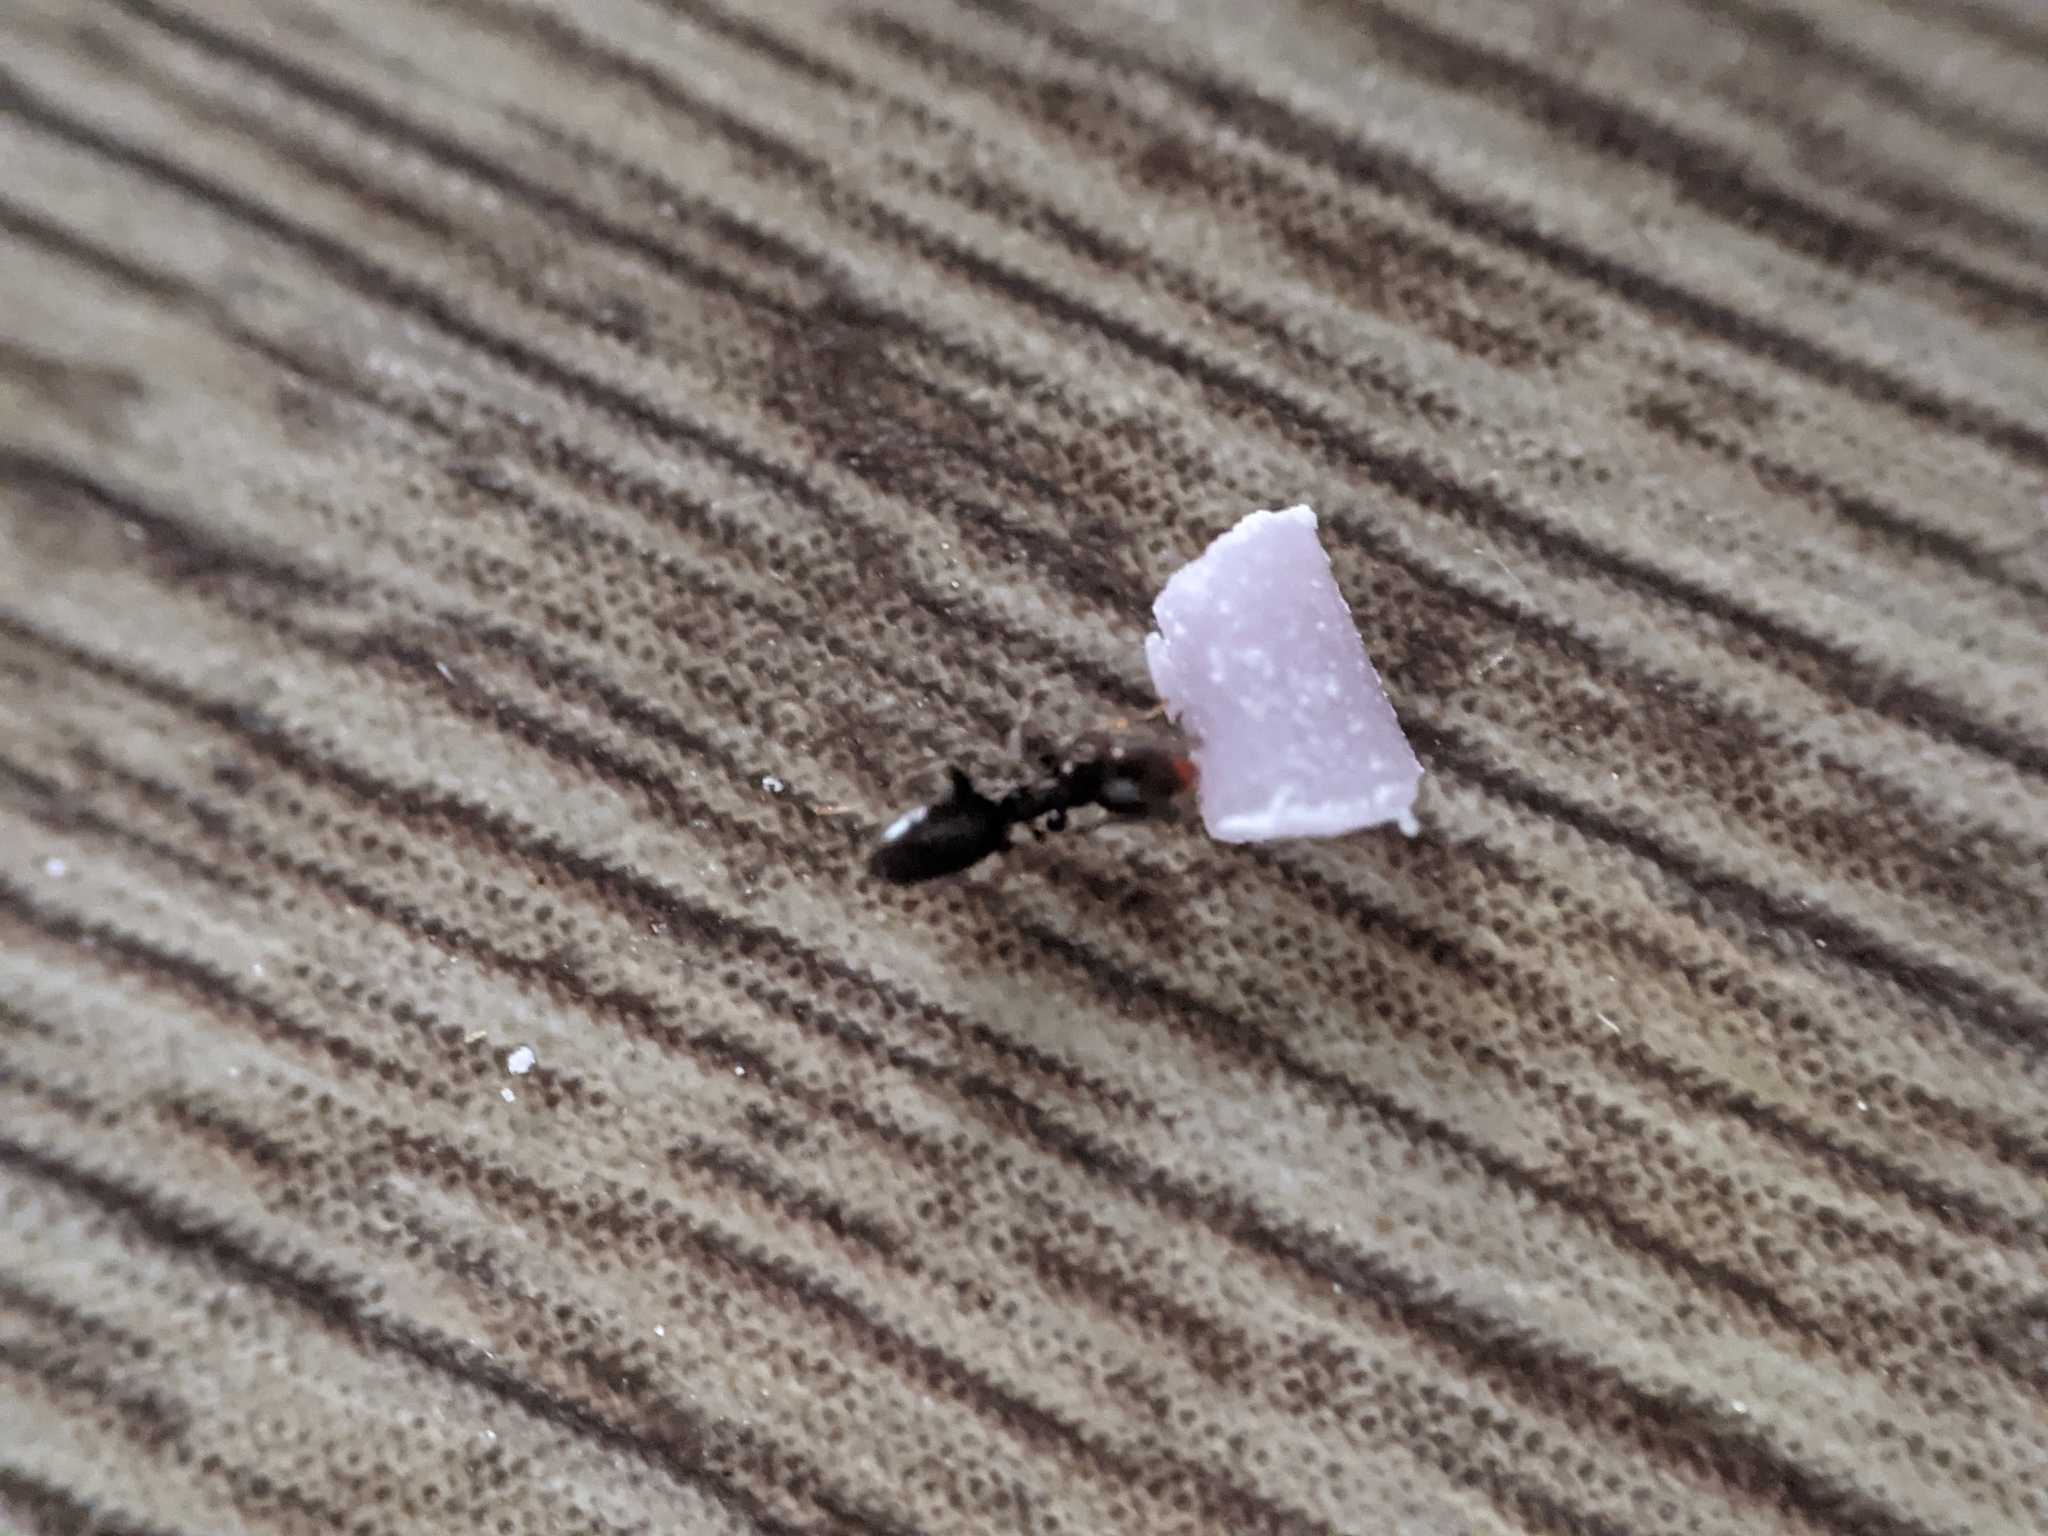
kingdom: Animalia
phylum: Arthropoda
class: Insecta
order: Hymenoptera
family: Formicidae
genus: Tapinoma
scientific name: Tapinoma sessile
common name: Odorous house ant
